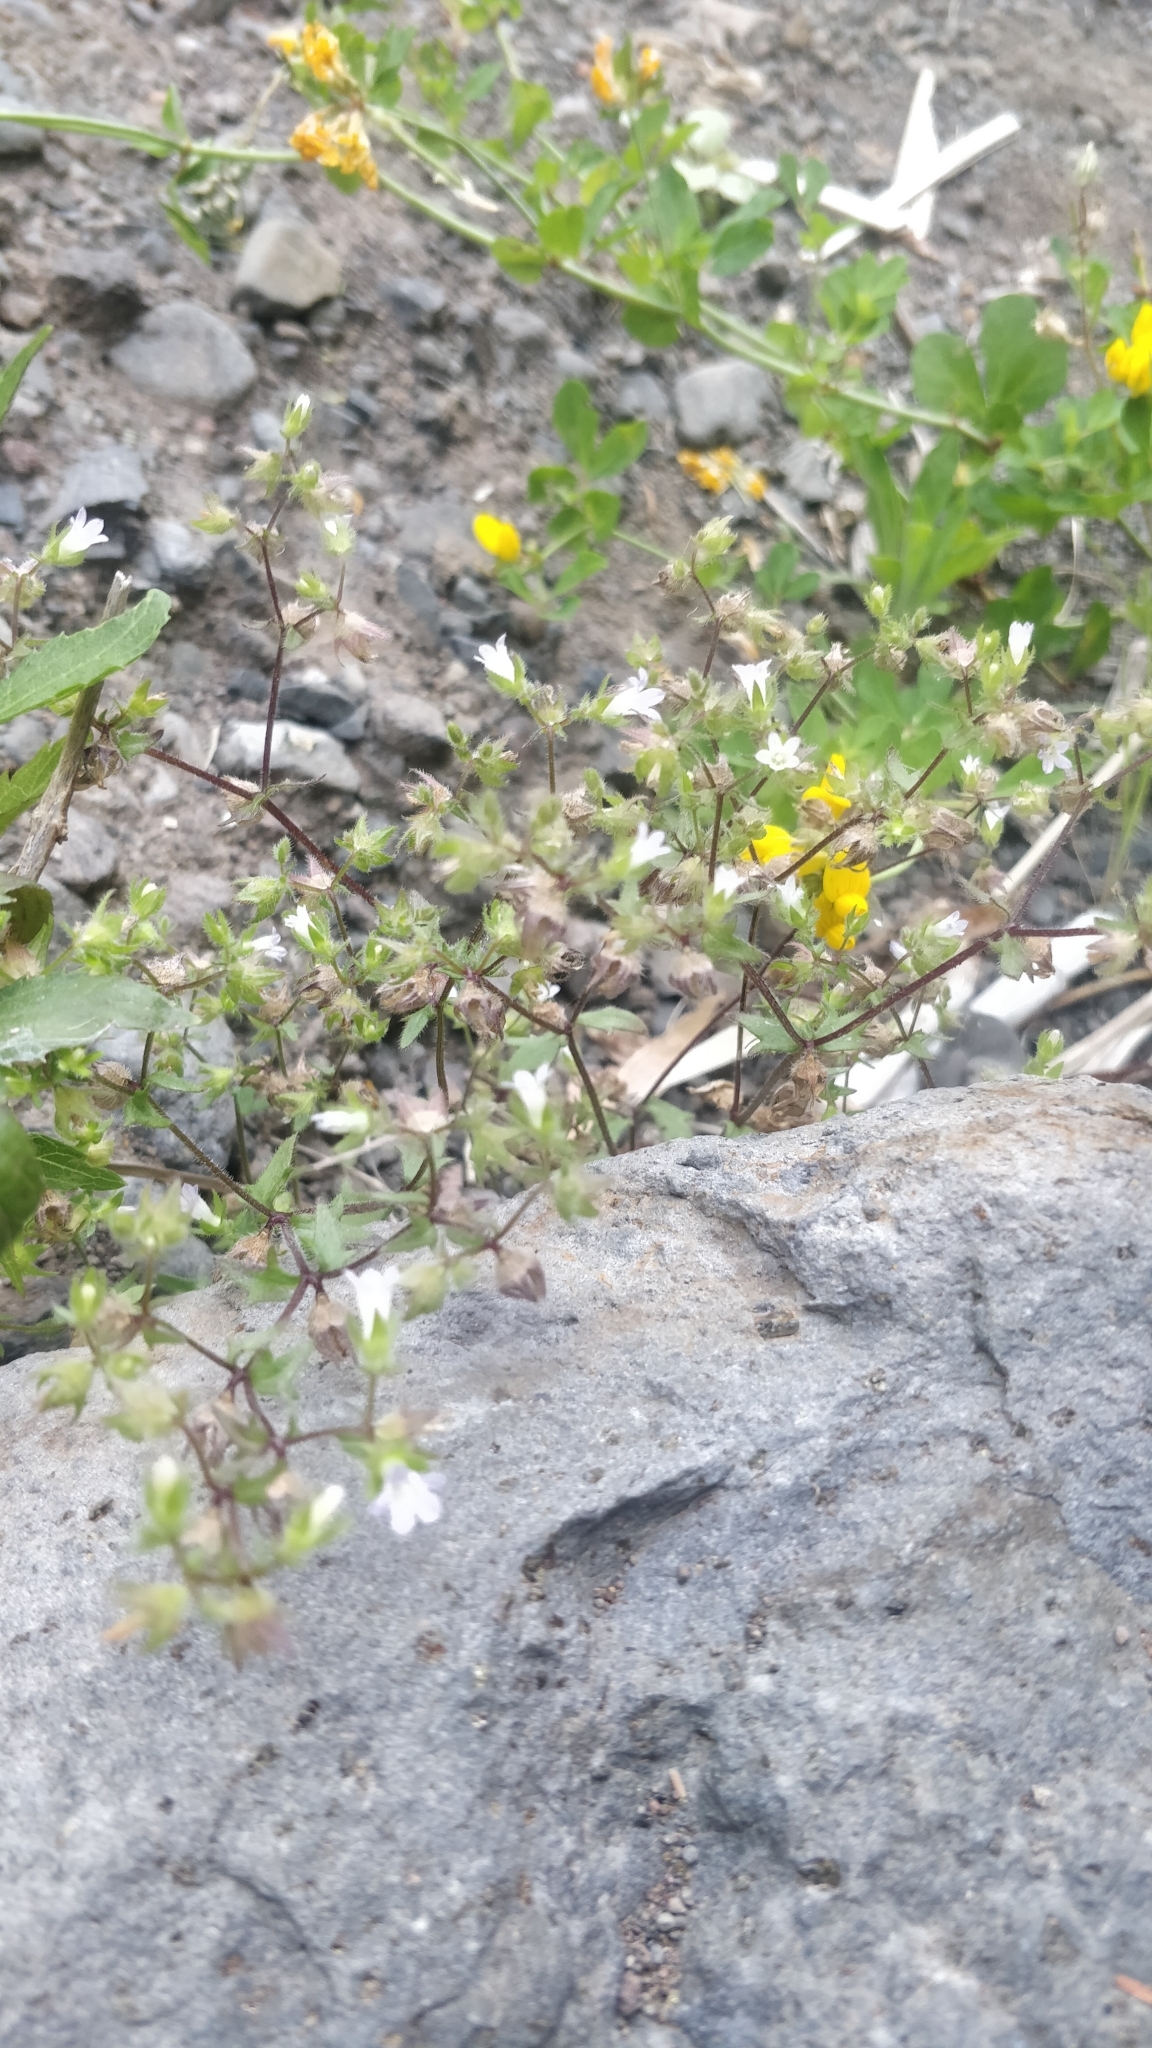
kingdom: Plantae
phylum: Tracheophyta
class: Magnoliopsida
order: Asterales
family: Campanulaceae
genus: Campanula
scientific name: Campanula erinus
